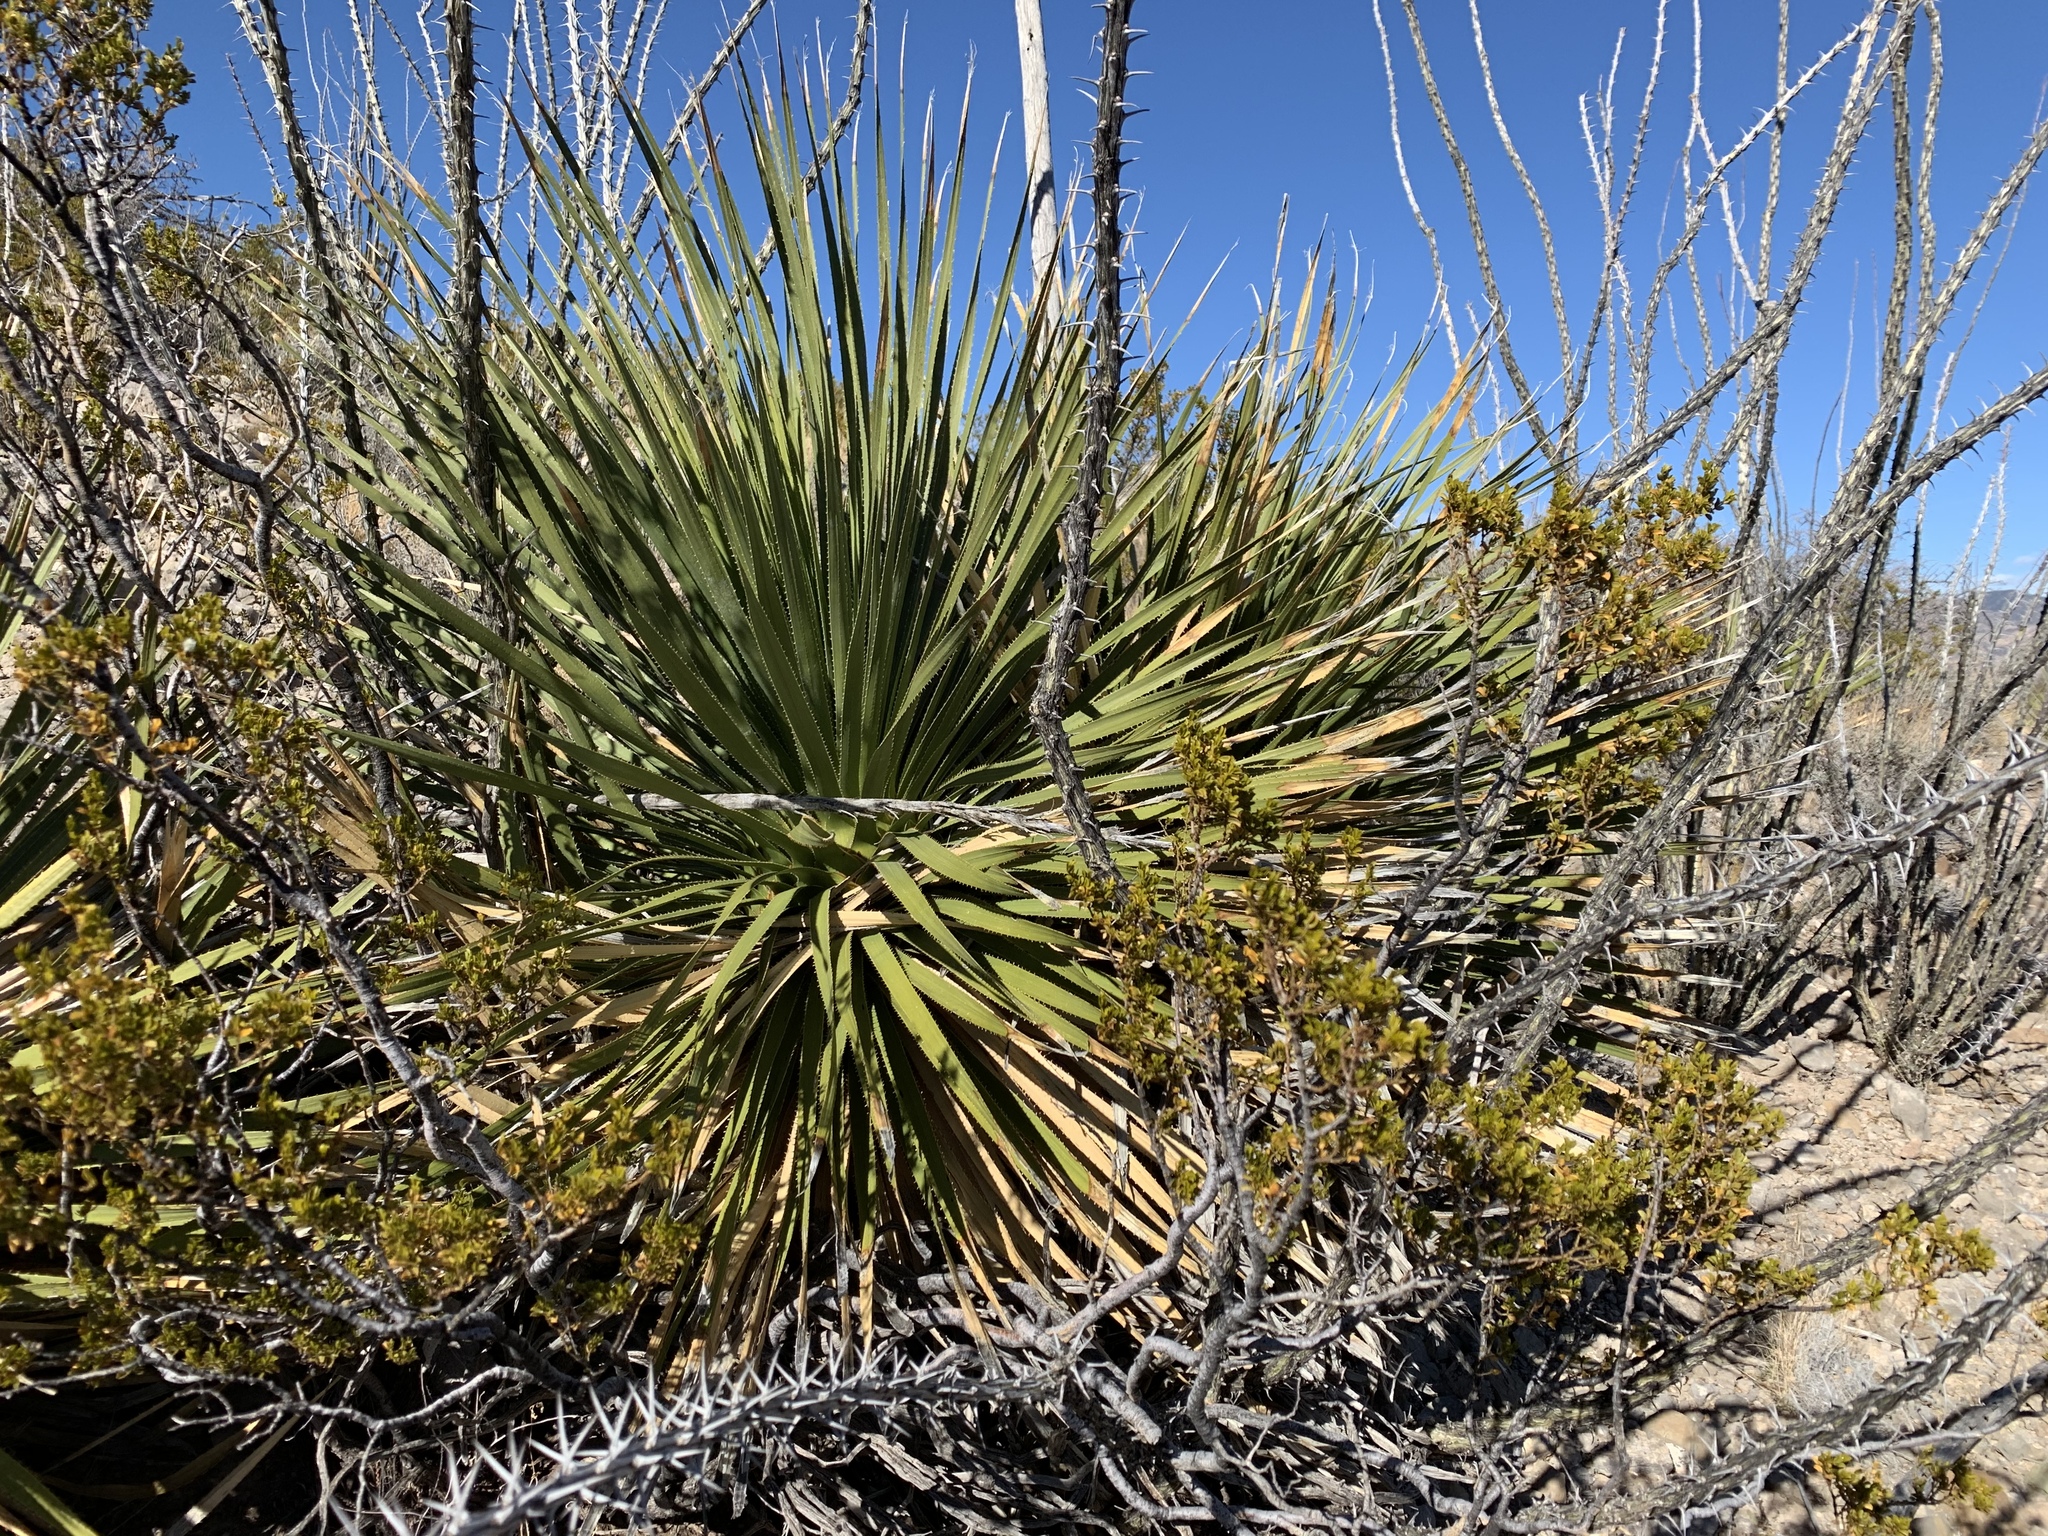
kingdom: Plantae
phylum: Tracheophyta
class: Liliopsida
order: Asparagales
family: Asparagaceae
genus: Dasylirion
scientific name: Dasylirion wheeleri
